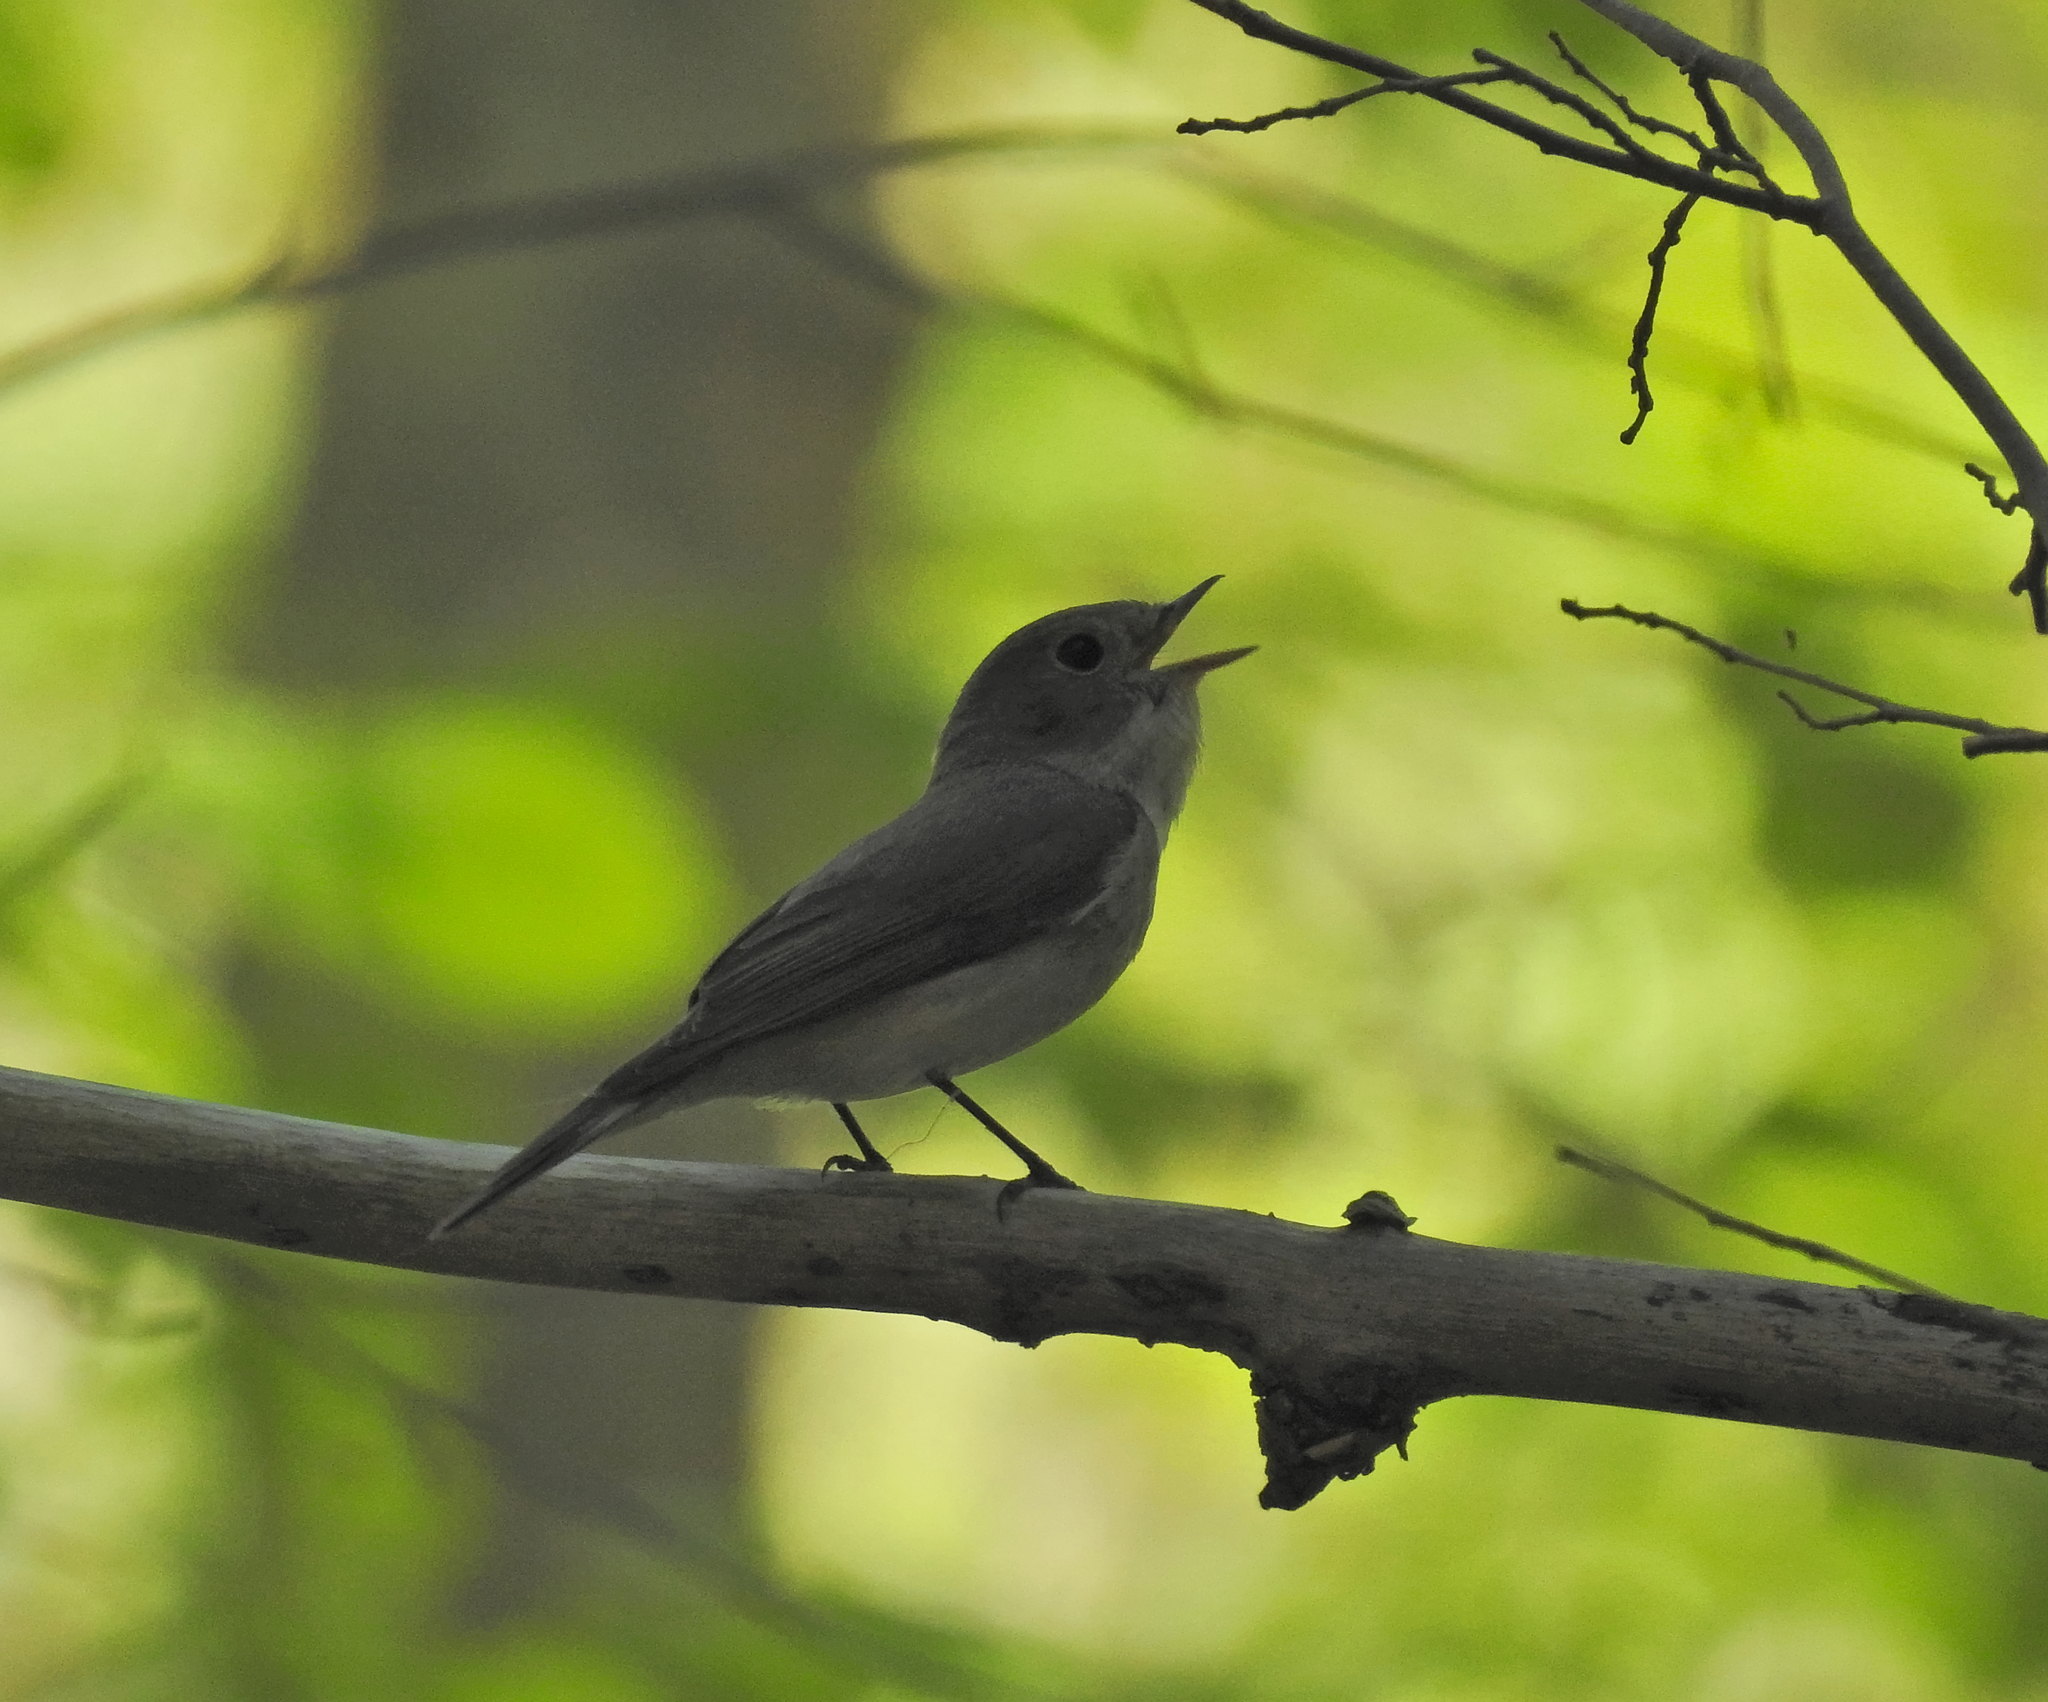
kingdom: Animalia
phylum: Chordata
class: Aves
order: Passeriformes
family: Muscicapidae
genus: Ficedula
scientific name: Ficedula parva
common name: Red-breasted flycatcher
